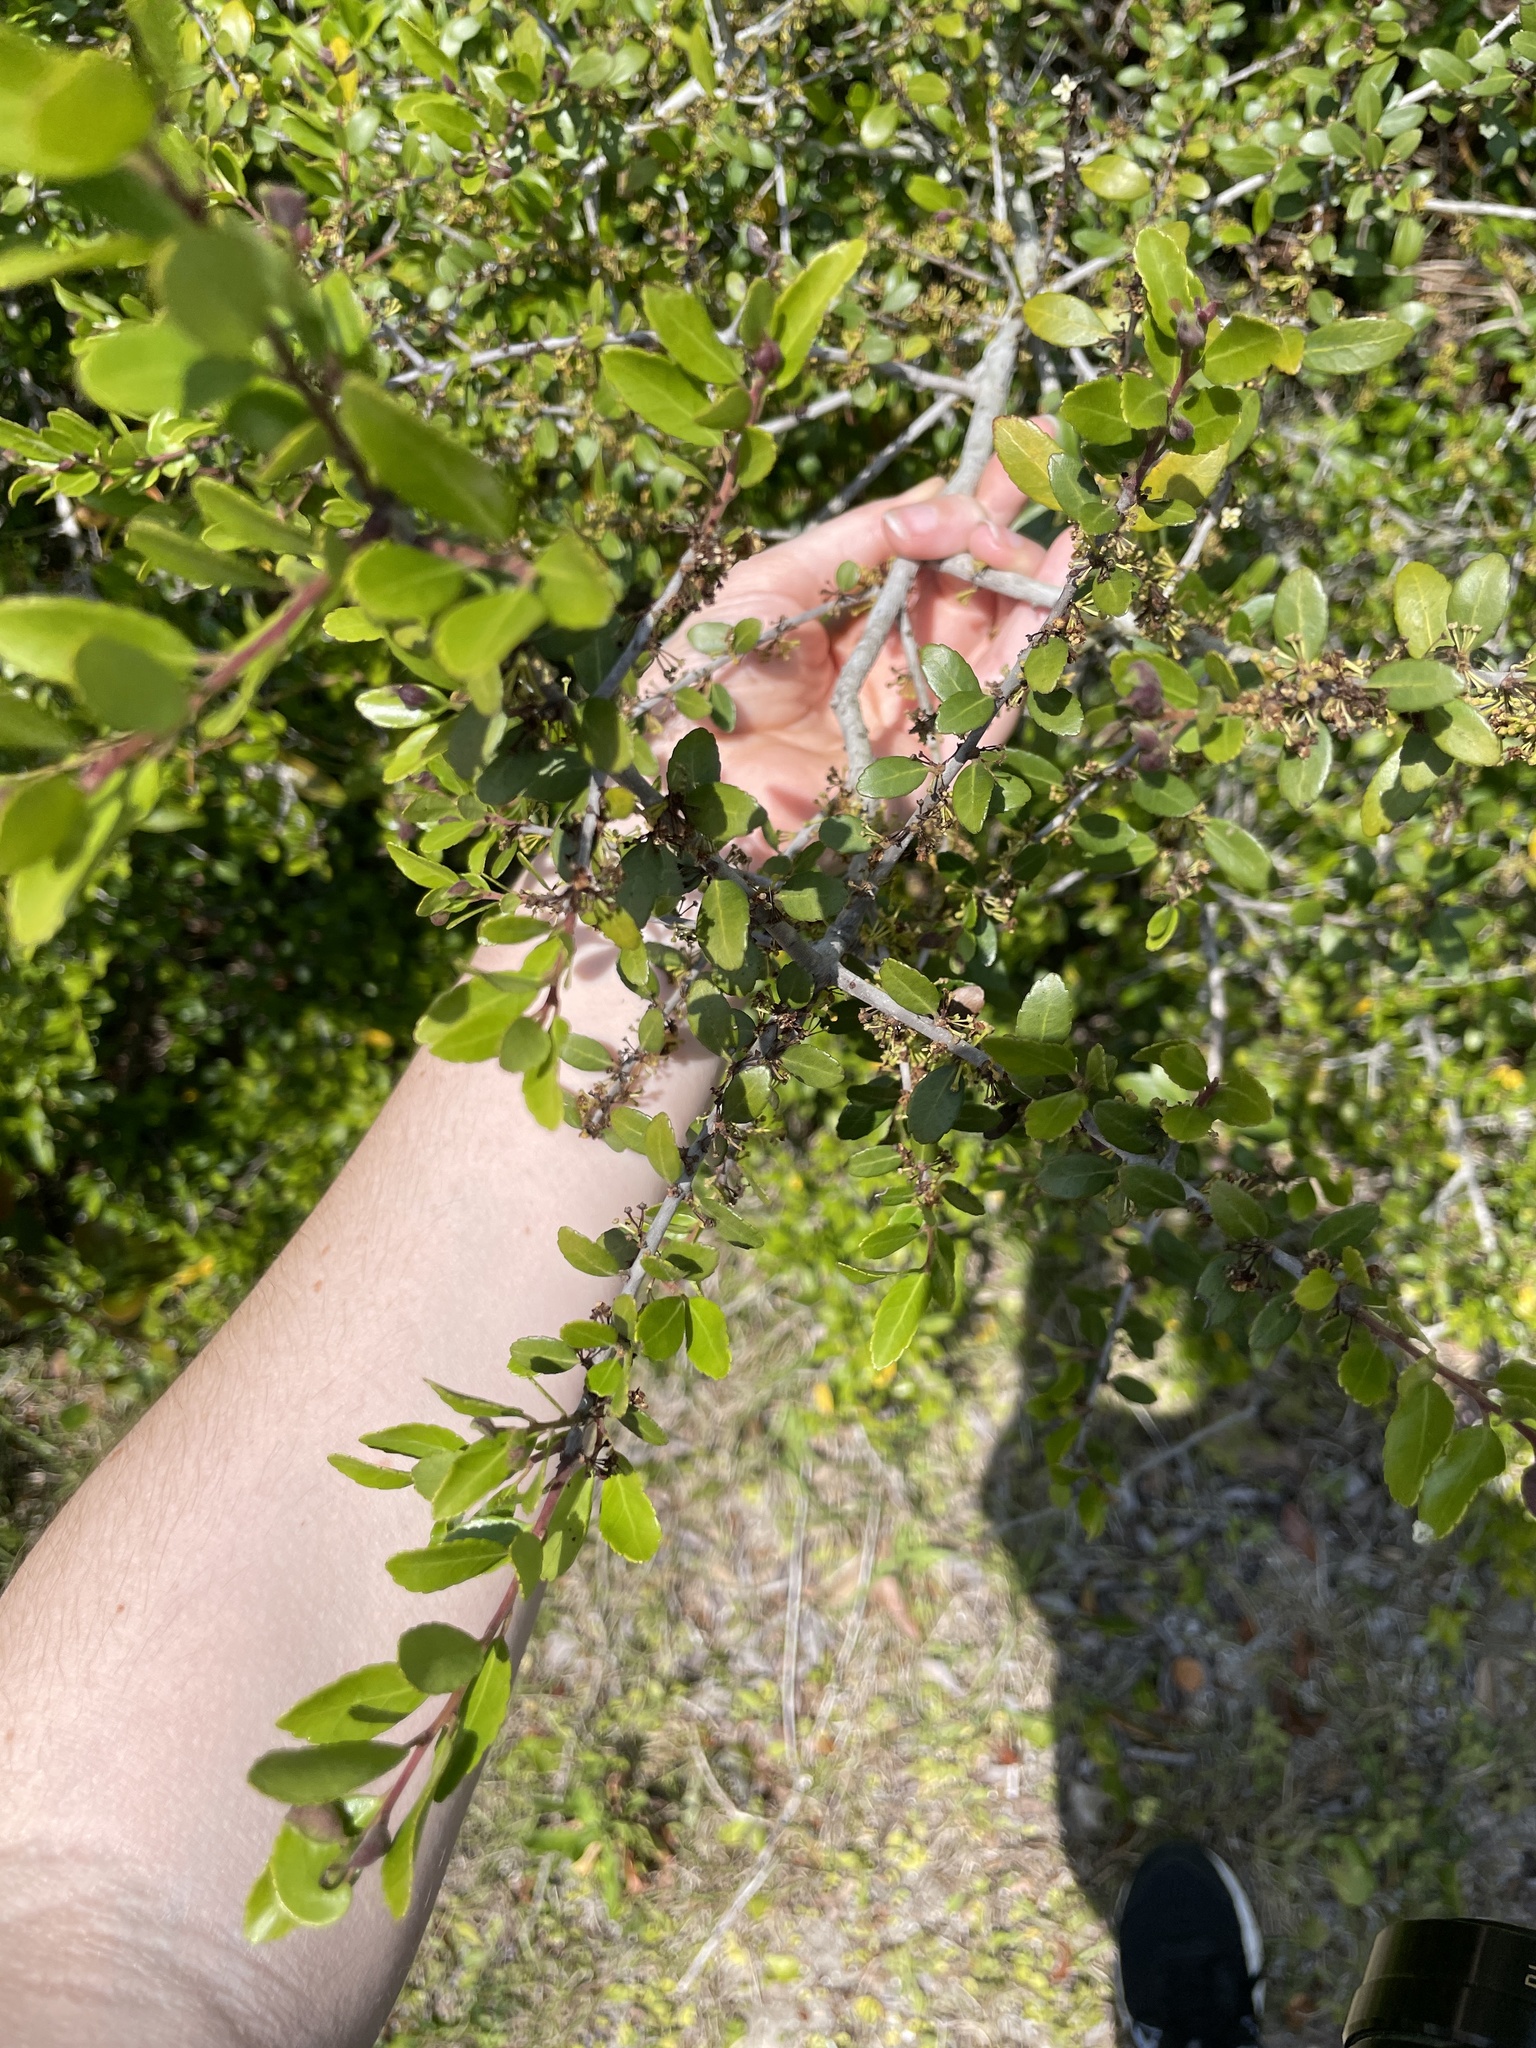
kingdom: Plantae
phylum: Tracheophyta
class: Magnoliopsida
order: Aquifoliales
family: Aquifoliaceae
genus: Ilex
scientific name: Ilex vomitoria
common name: Yaupon holly
